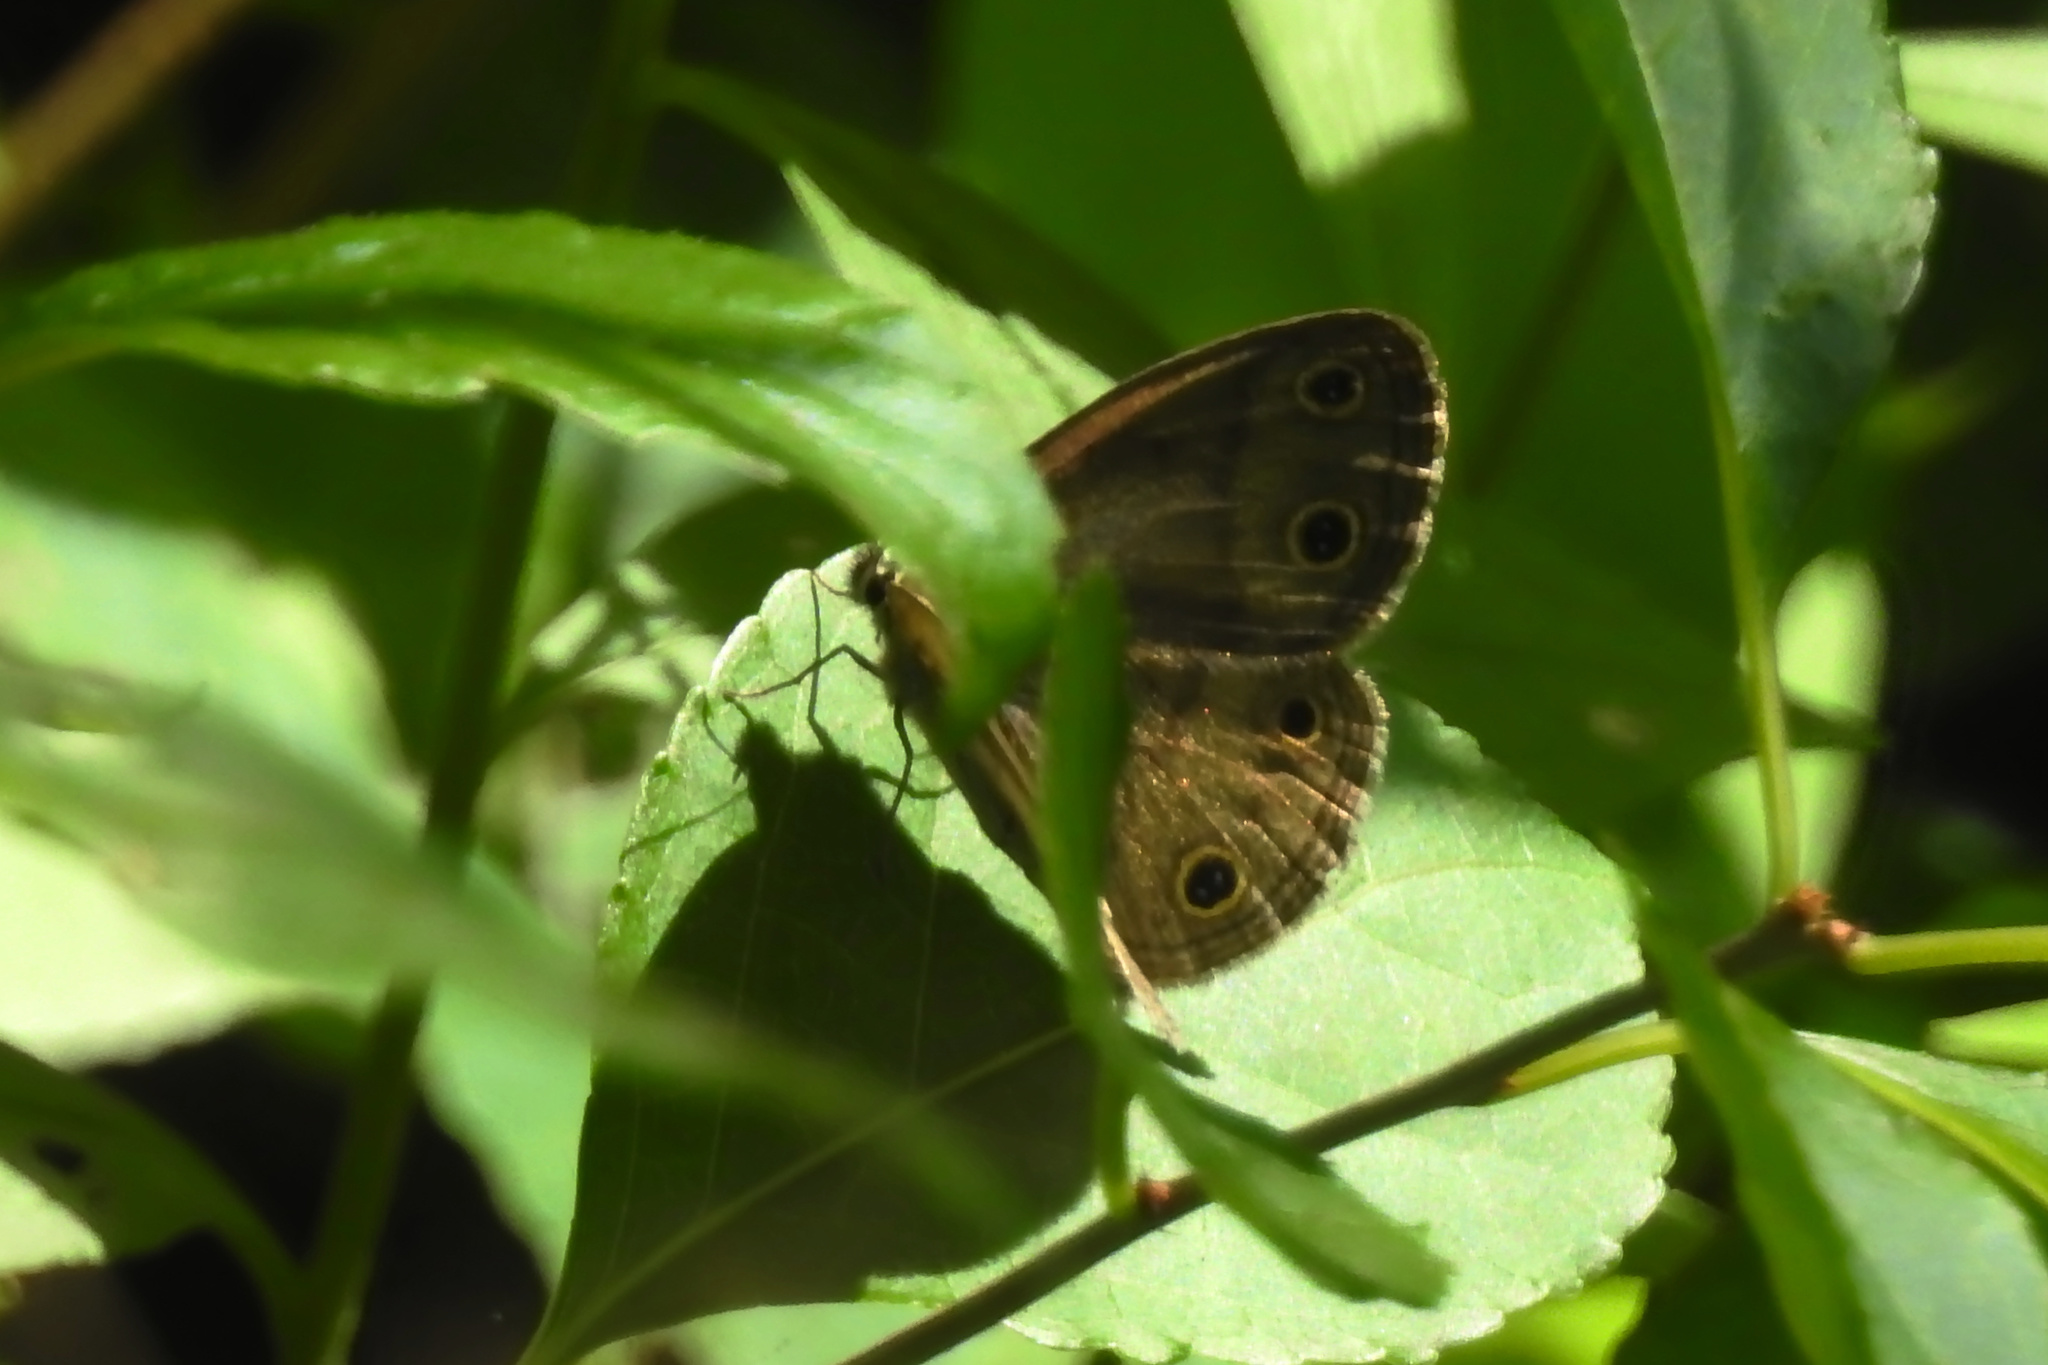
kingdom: Animalia
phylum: Arthropoda
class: Insecta
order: Lepidoptera
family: Nymphalidae
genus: Euptychia
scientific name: Euptychia cymela
